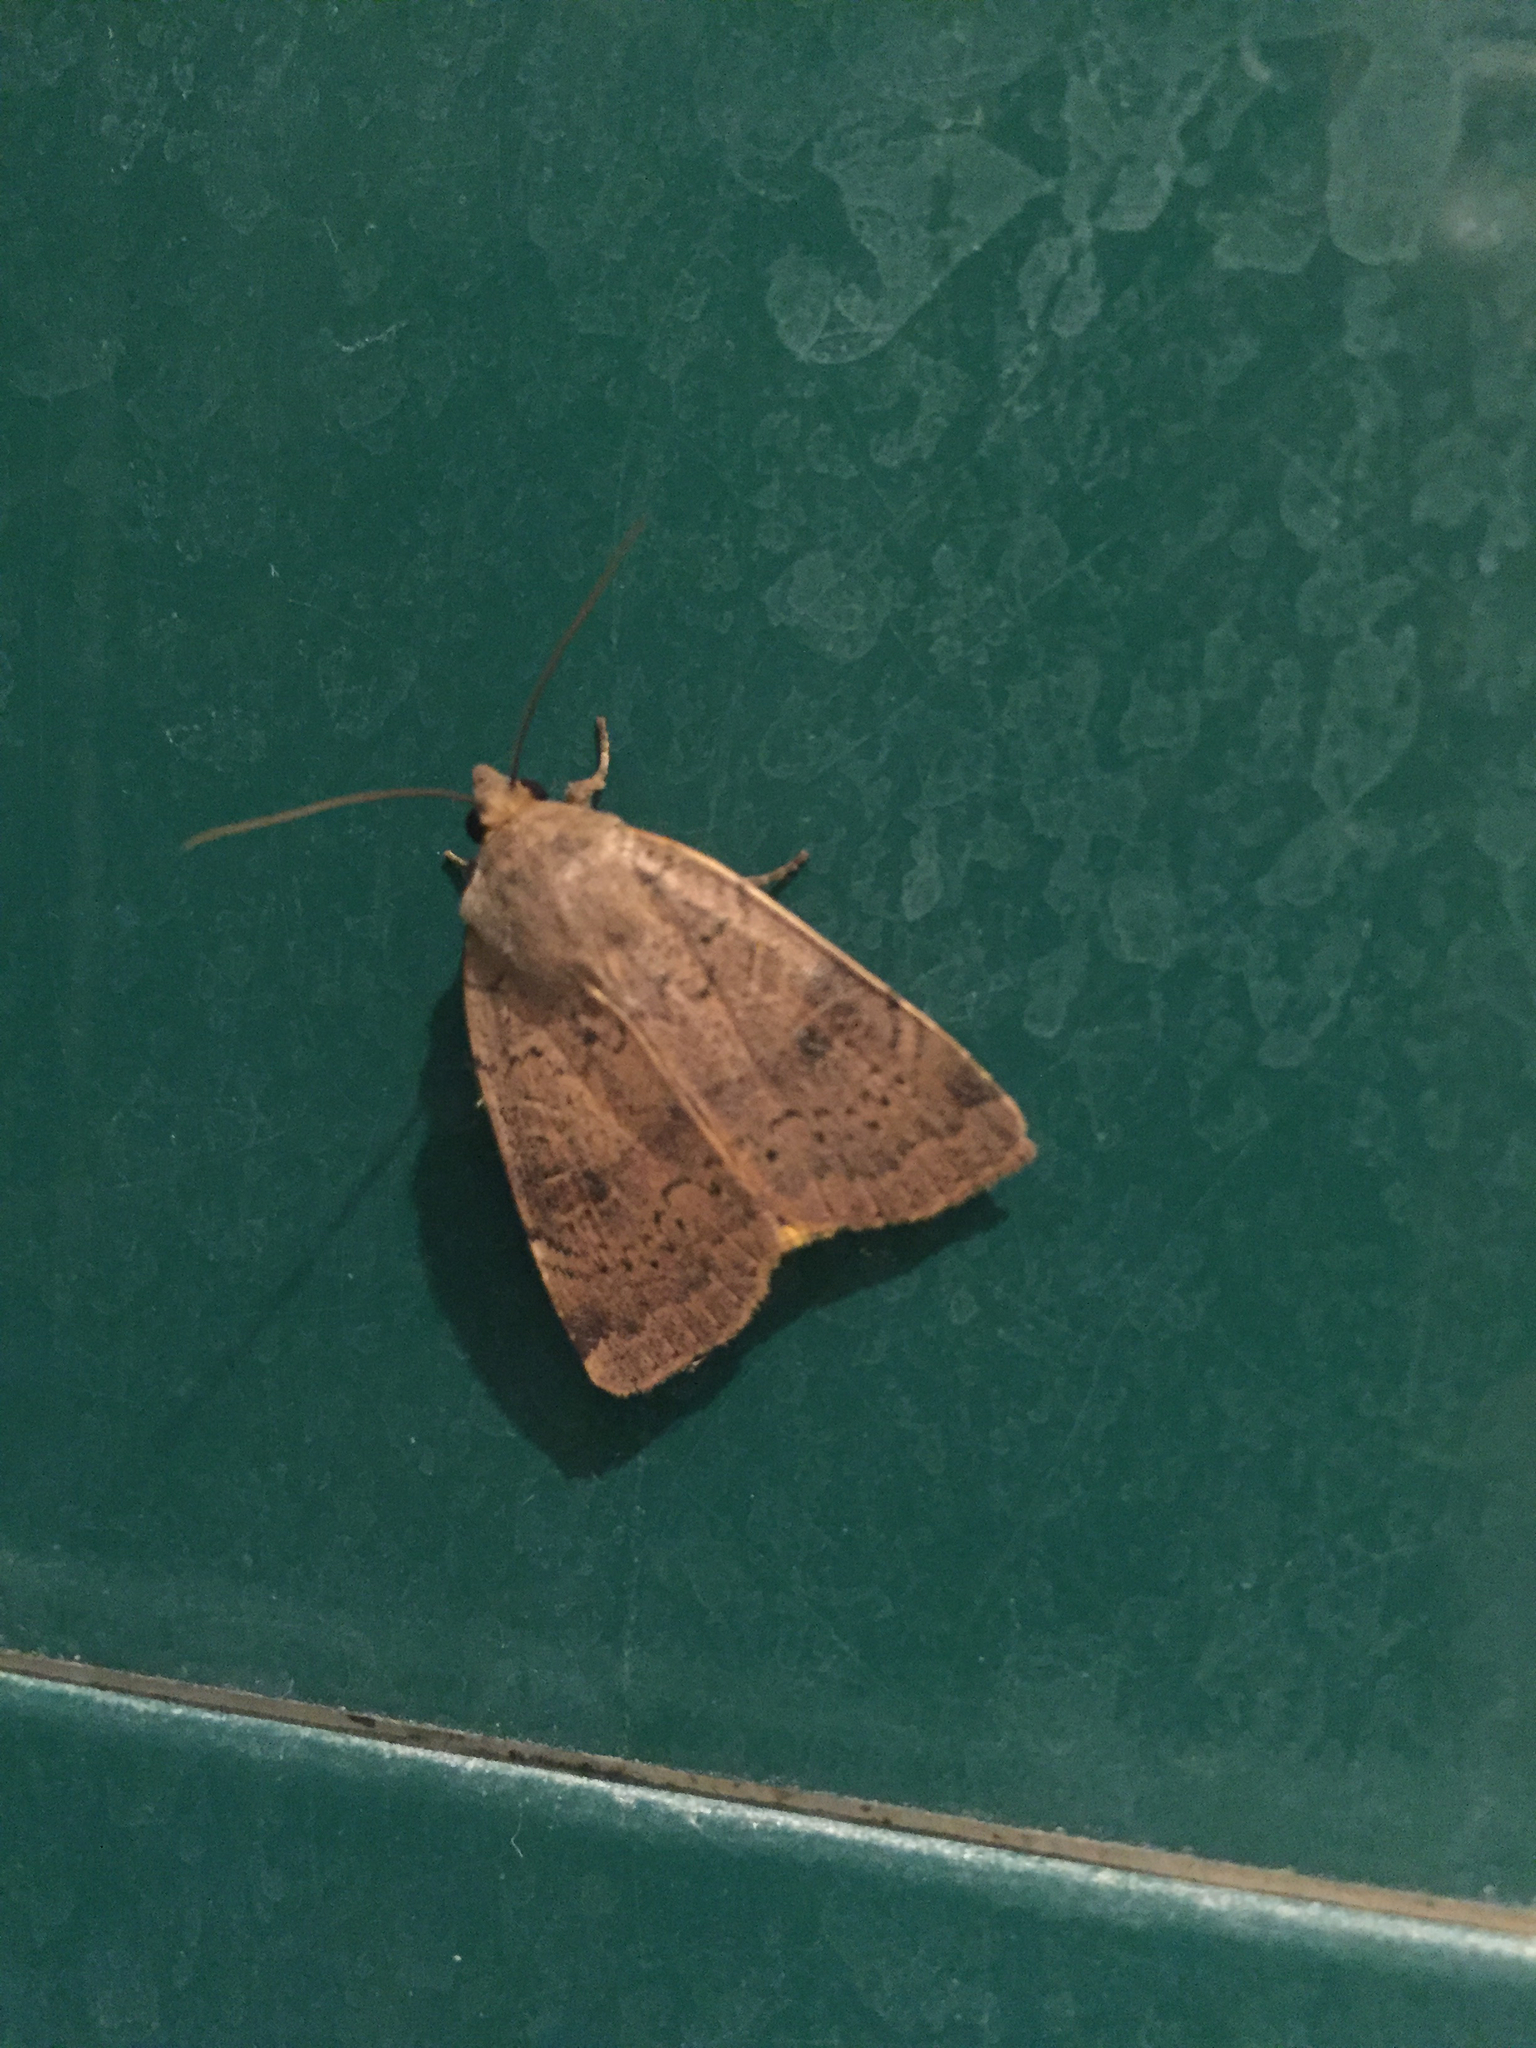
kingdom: Animalia
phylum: Arthropoda
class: Insecta
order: Lepidoptera
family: Noctuidae
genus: Noctua
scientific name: Noctua comes
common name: Lesser yellow underwing
